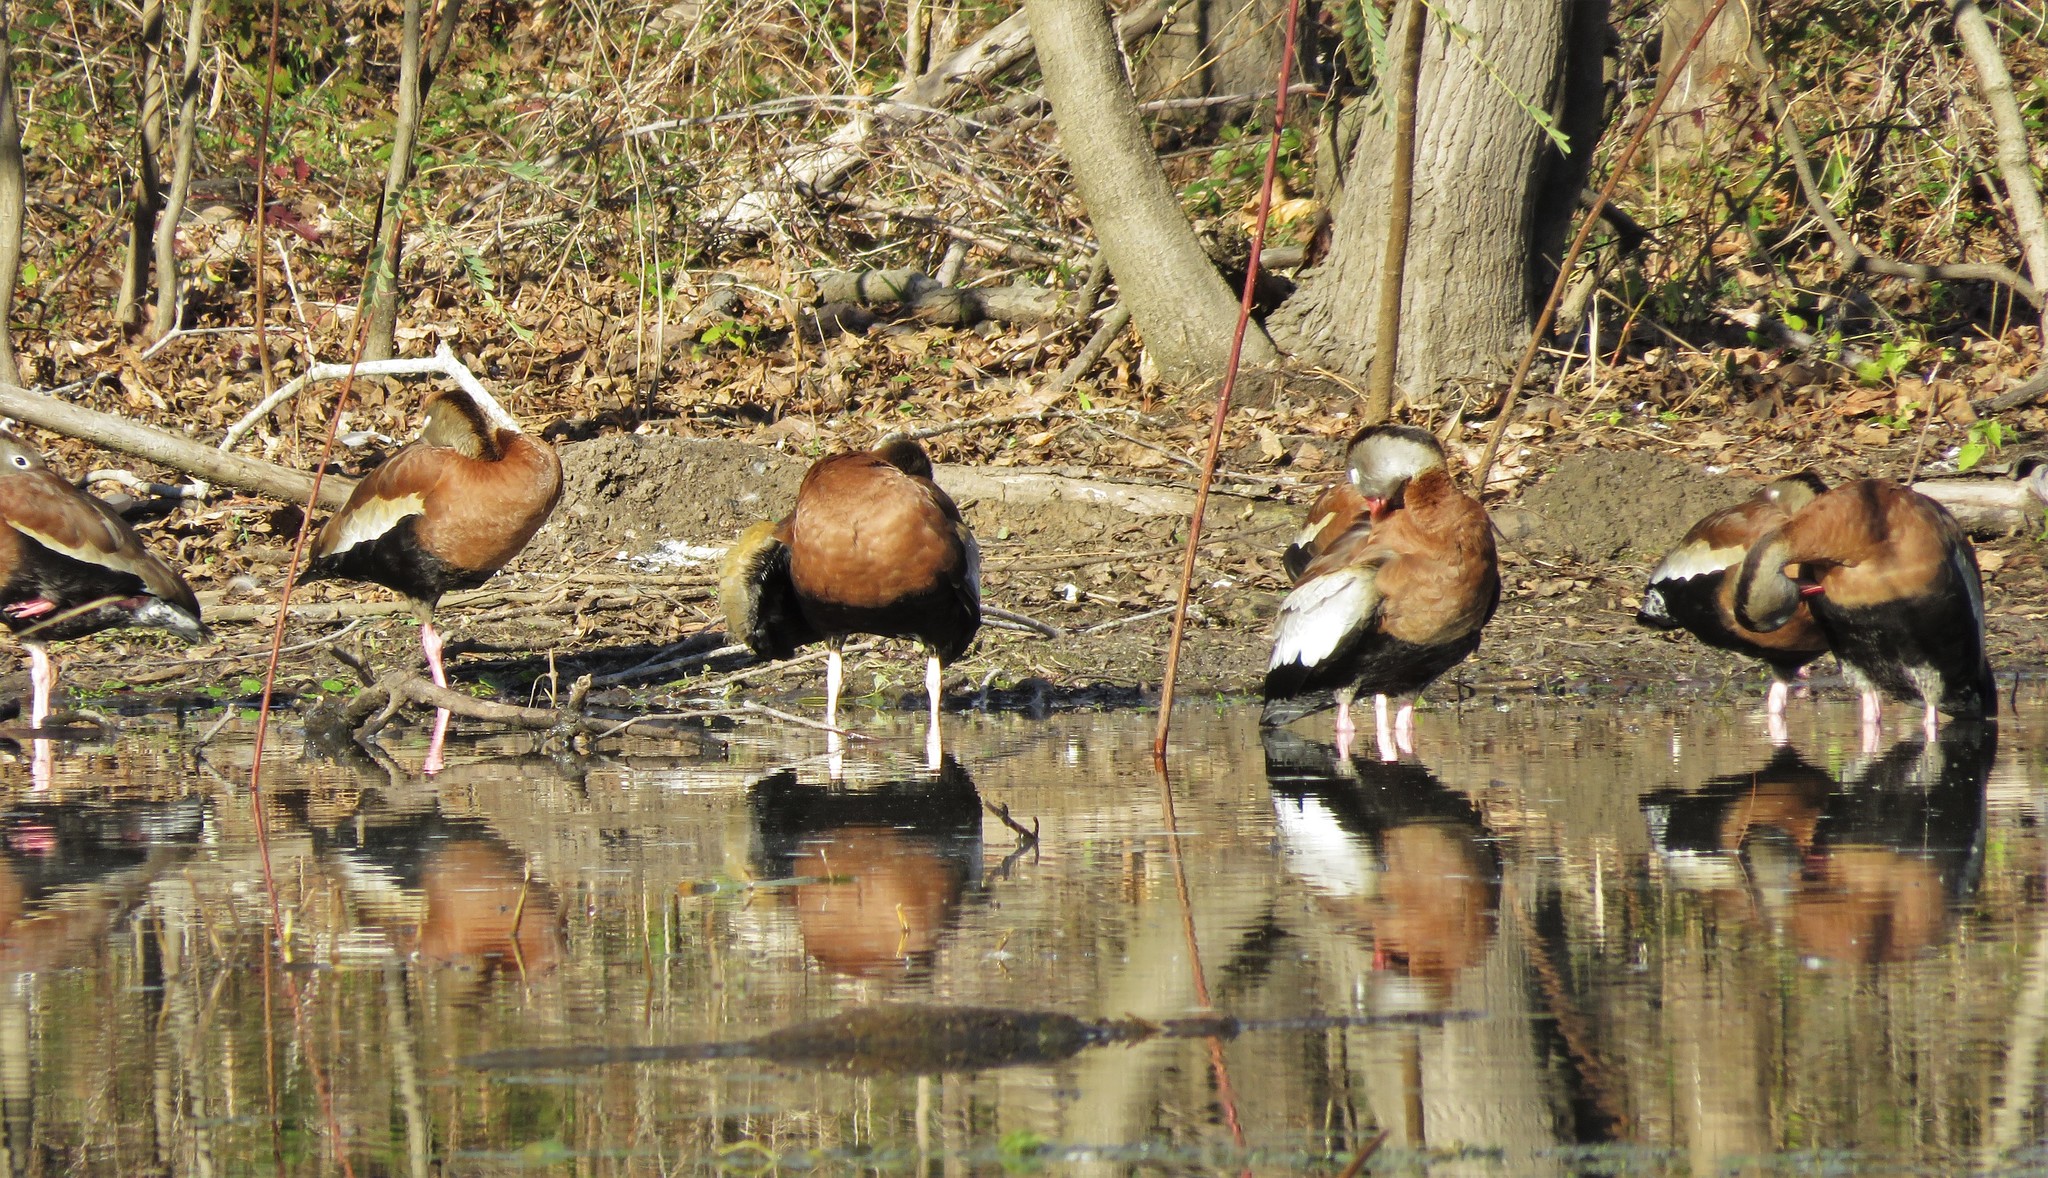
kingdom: Animalia
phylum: Chordata
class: Aves
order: Anseriformes
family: Anatidae
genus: Dendrocygna
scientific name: Dendrocygna autumnalis
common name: Black-bellied whistling duck
